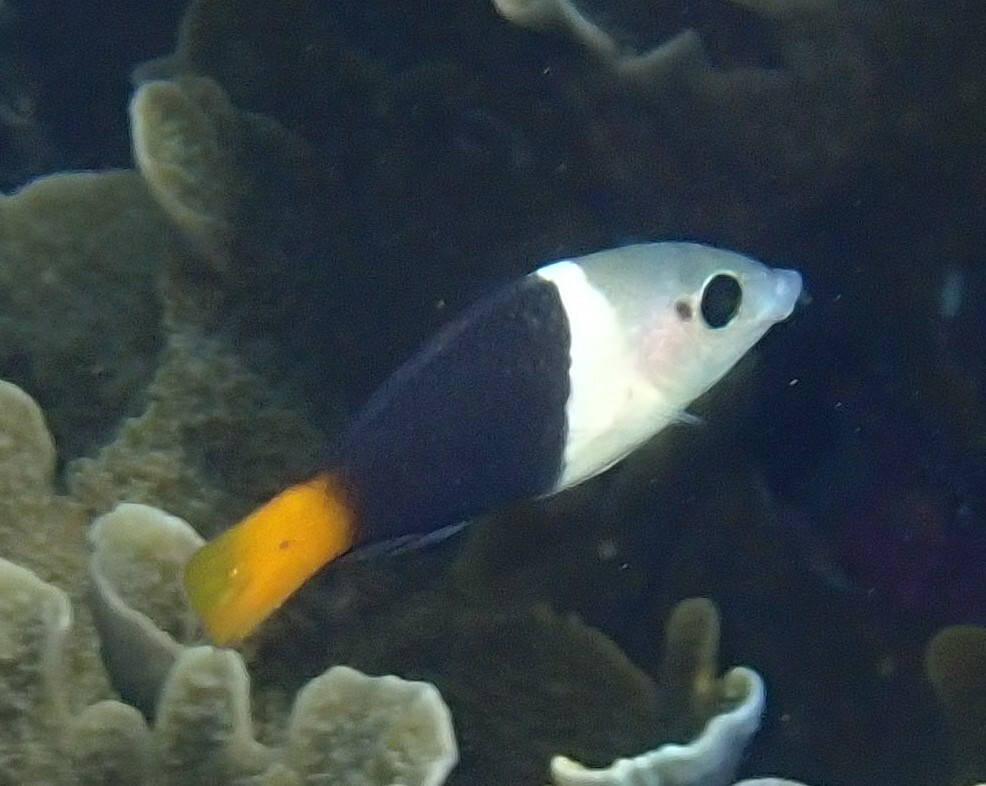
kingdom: Animalia
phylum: Chordata
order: Perciformes
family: Labridae
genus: Hemigymnus
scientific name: Hemigymnus melapterus
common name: Blackeye thicklip
